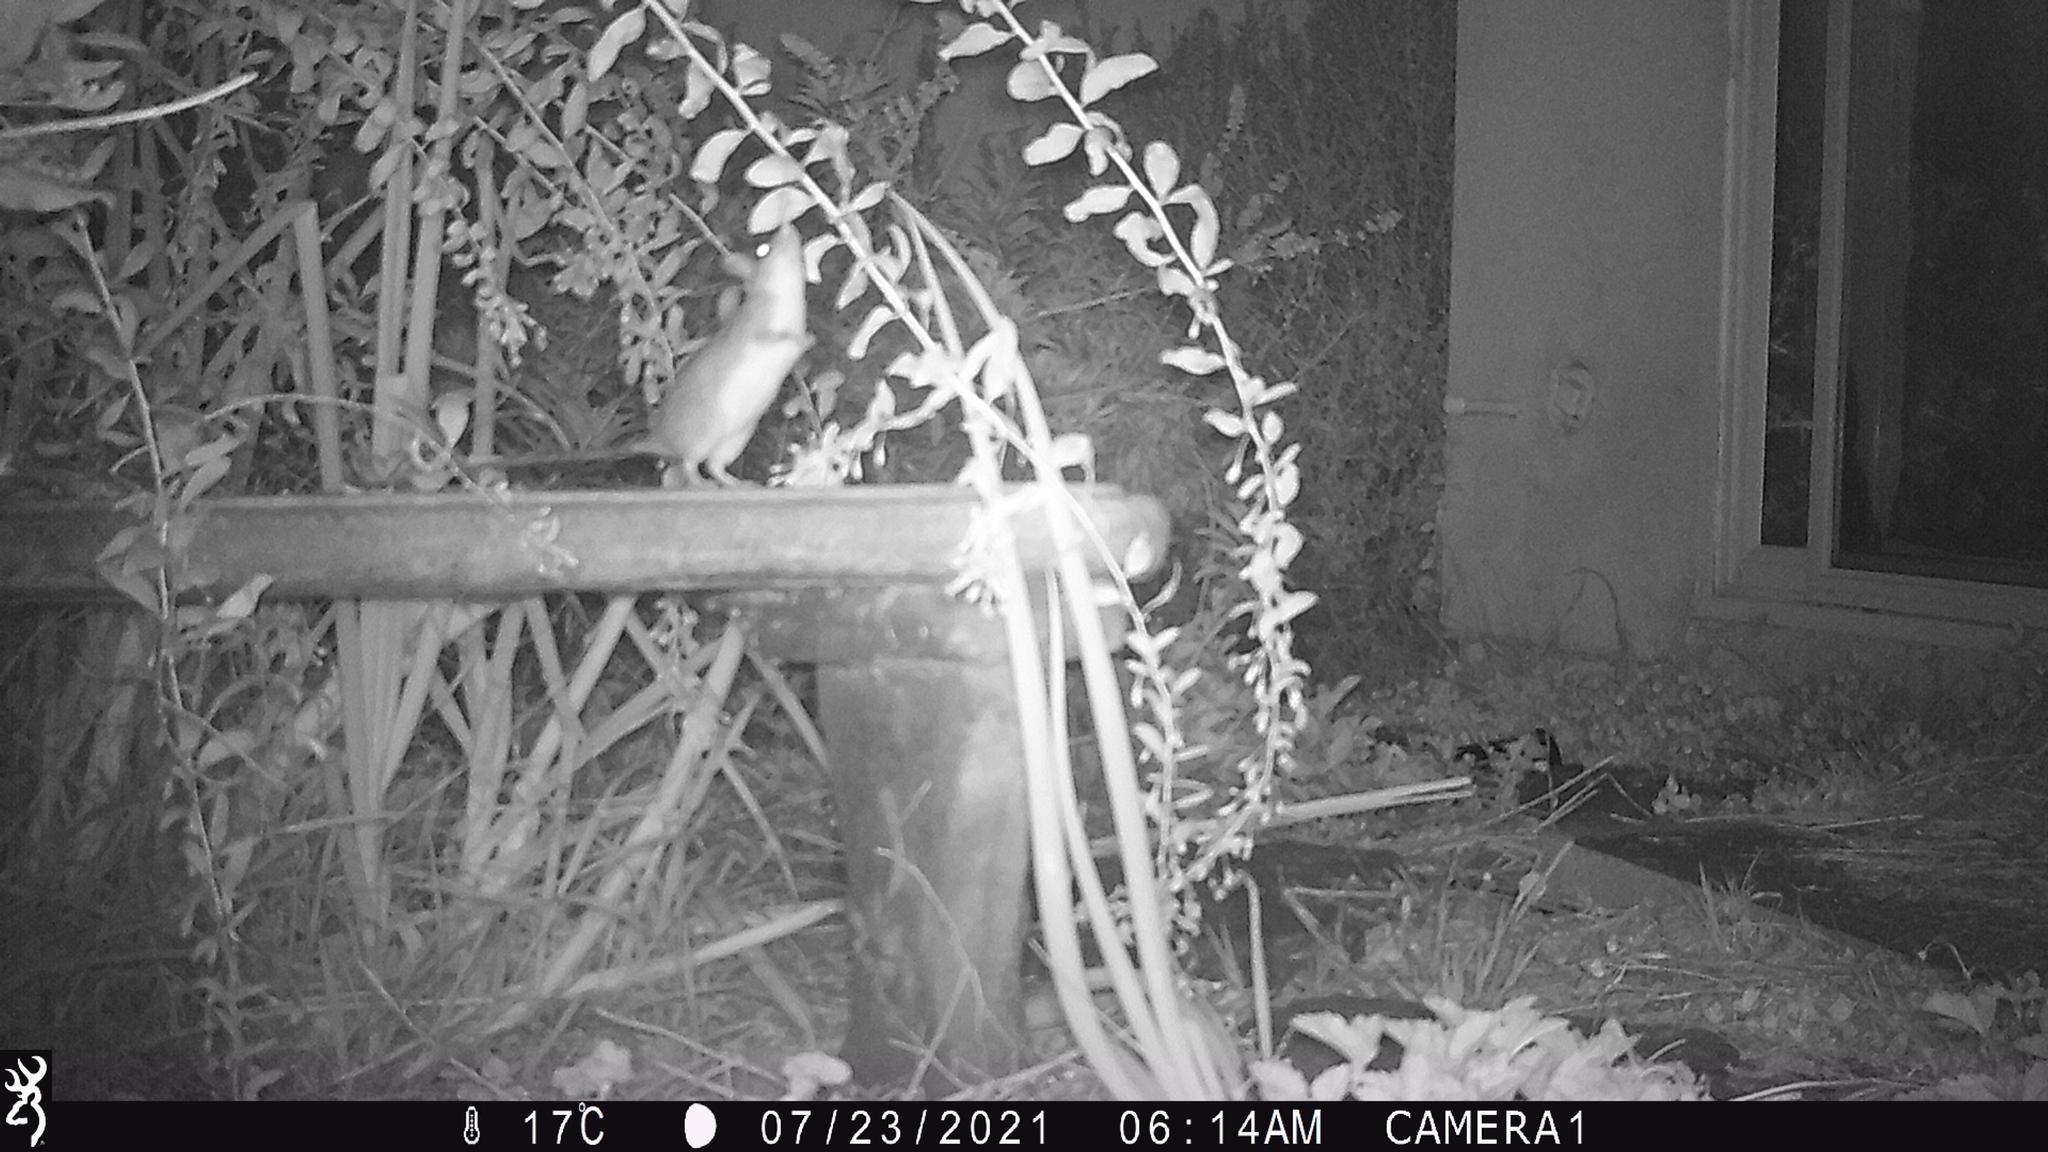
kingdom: Animalia
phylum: Chordata
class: Mammalia
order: Rodentia
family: Muridae
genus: Rattus
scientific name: Rattus rattus
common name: Black rat
